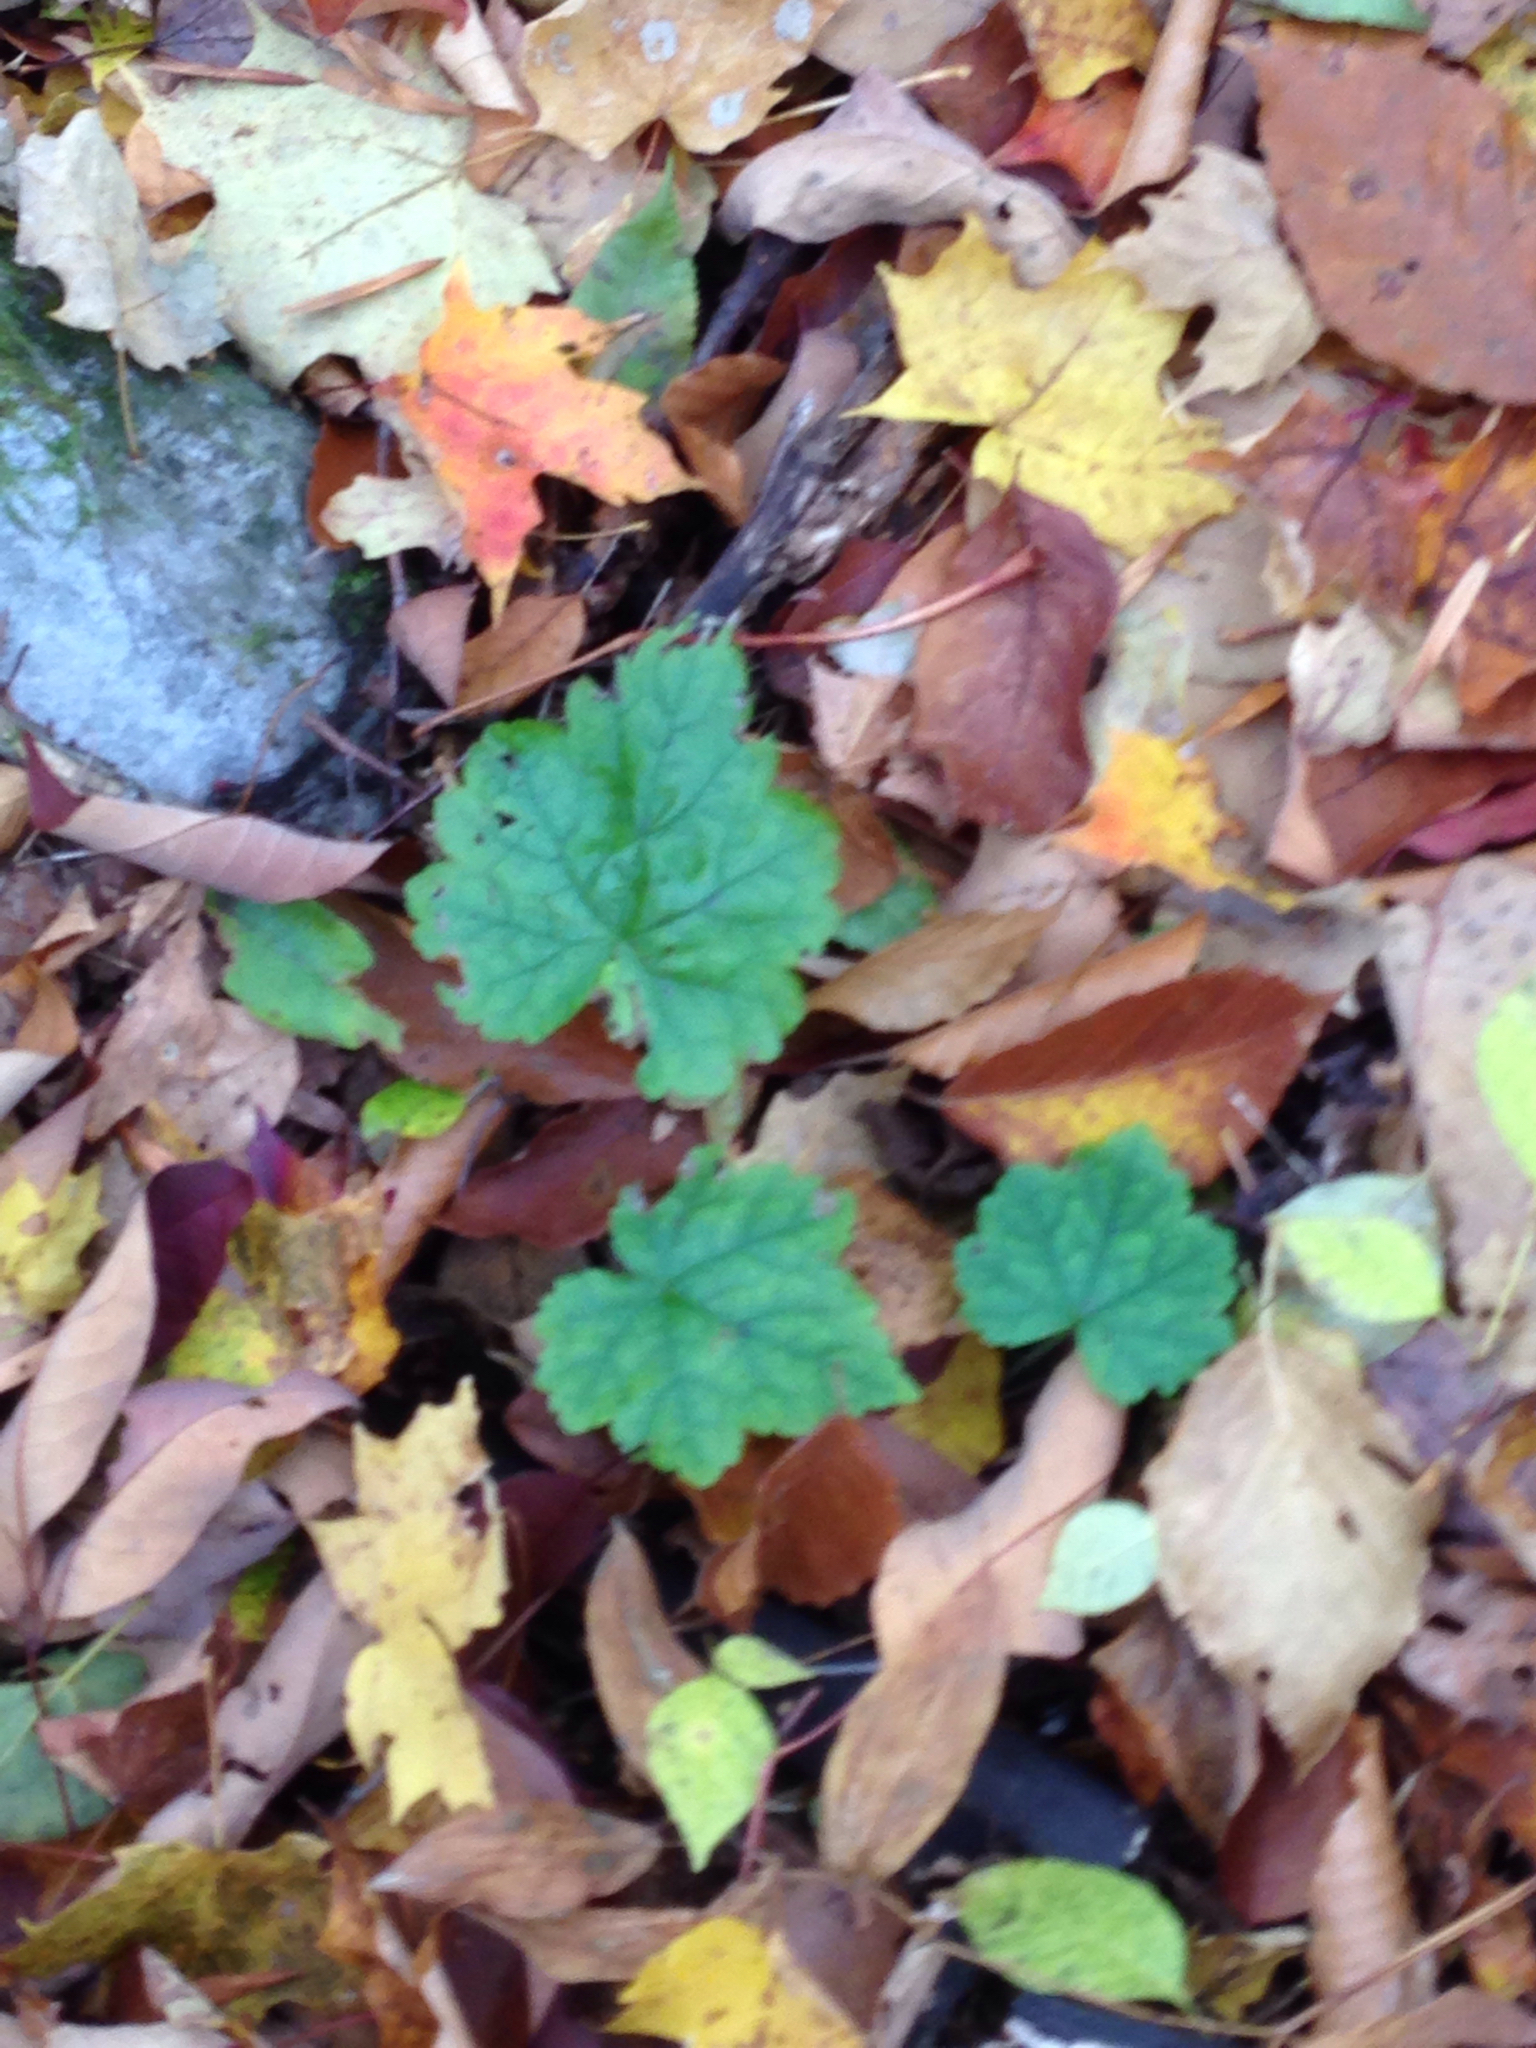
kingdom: Plantae
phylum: Tracheophyta
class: Magnoliopsida
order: Saxifragales
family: Saxifragaceae
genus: Tiarella
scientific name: Tiarella stolonifera
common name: Stoloniferous foamflower
